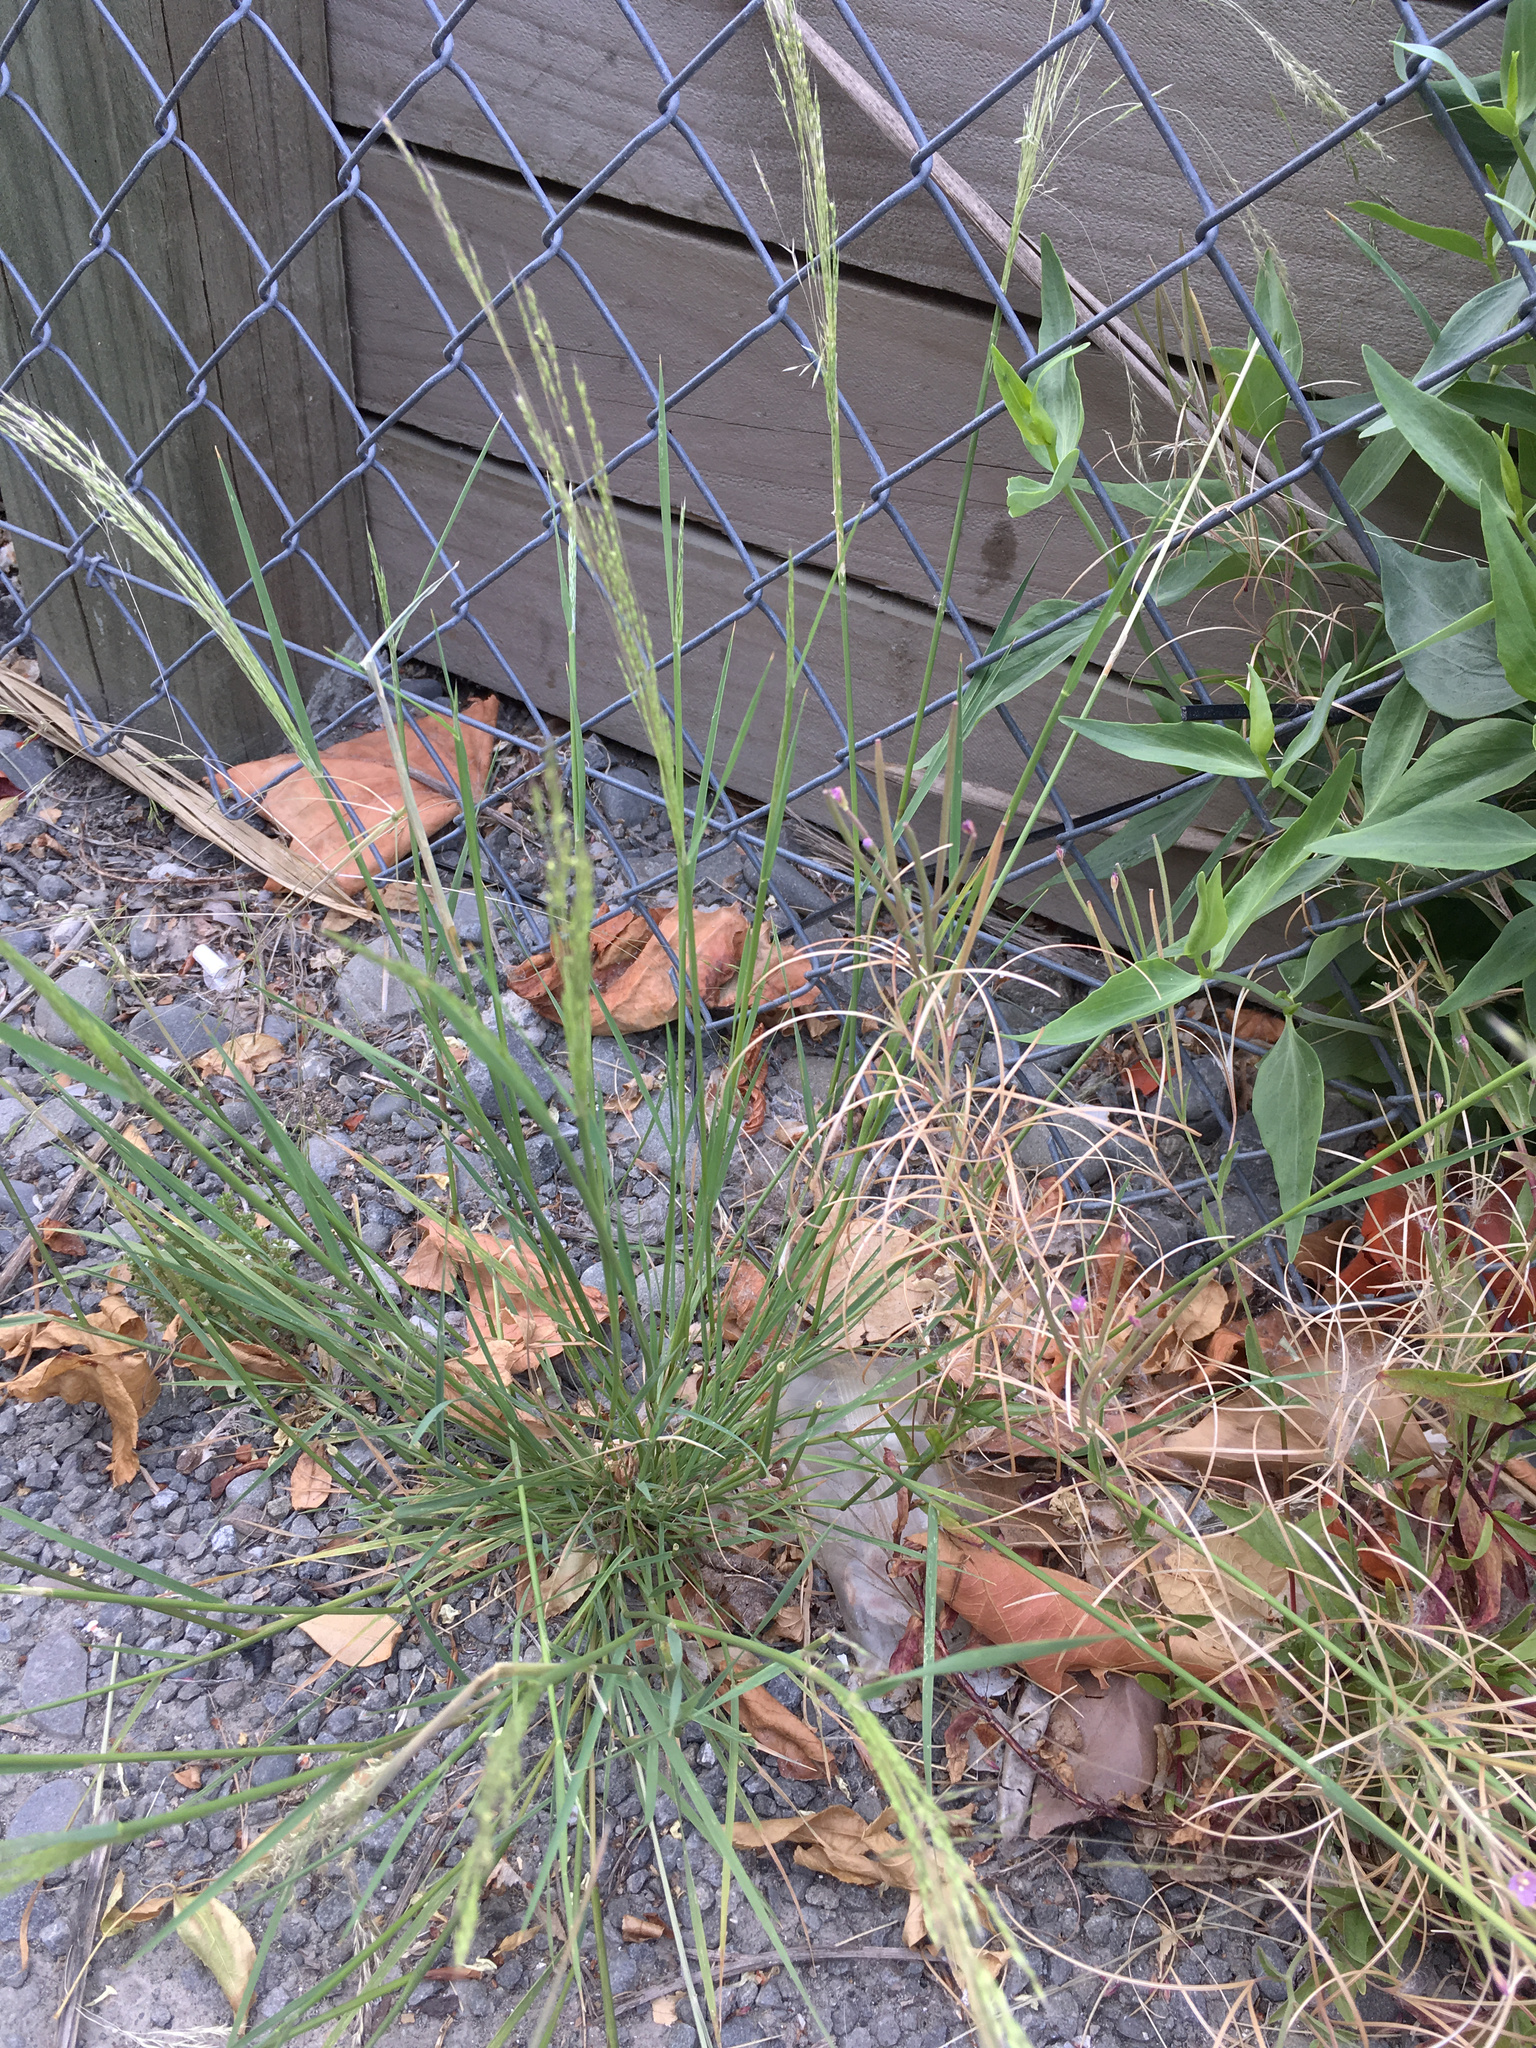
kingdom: Plantae
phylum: Tracheophyta
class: Liliopsida
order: Poales
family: Poaceae
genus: Lachnagrostis
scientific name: Lachnagrostis filiformis
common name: Bentgrass
